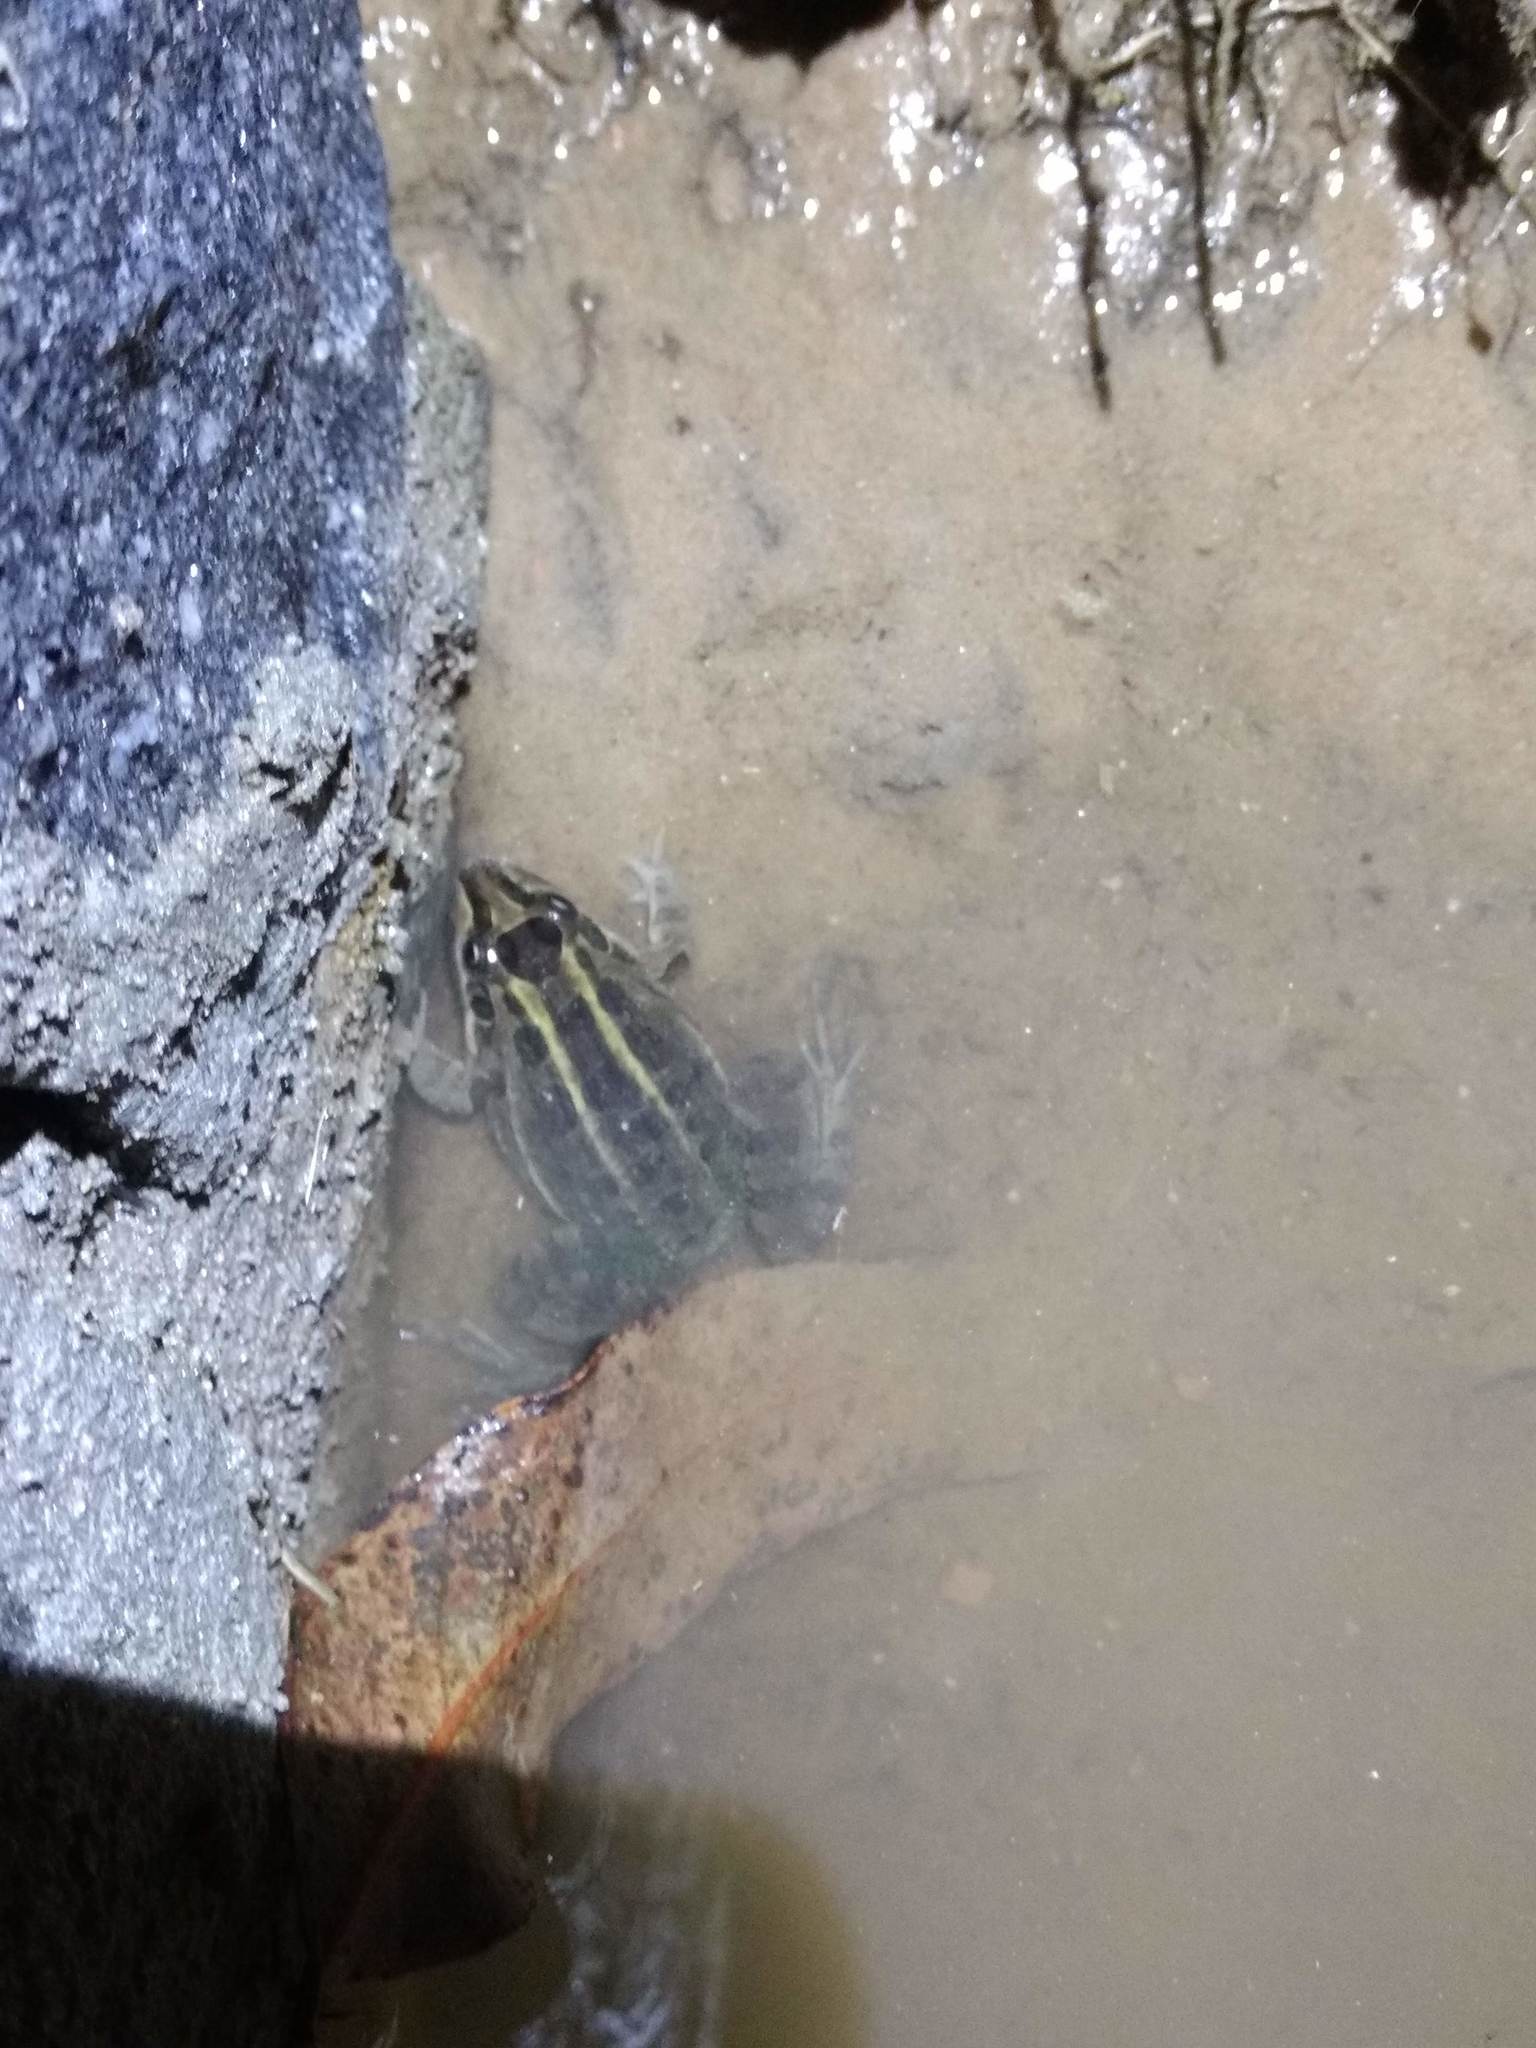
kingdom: Animalia
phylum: Chordata
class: Amphibia
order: Anura
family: Leptodactylidae
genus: Leptodactylus
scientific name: Leptodactylus luctator
